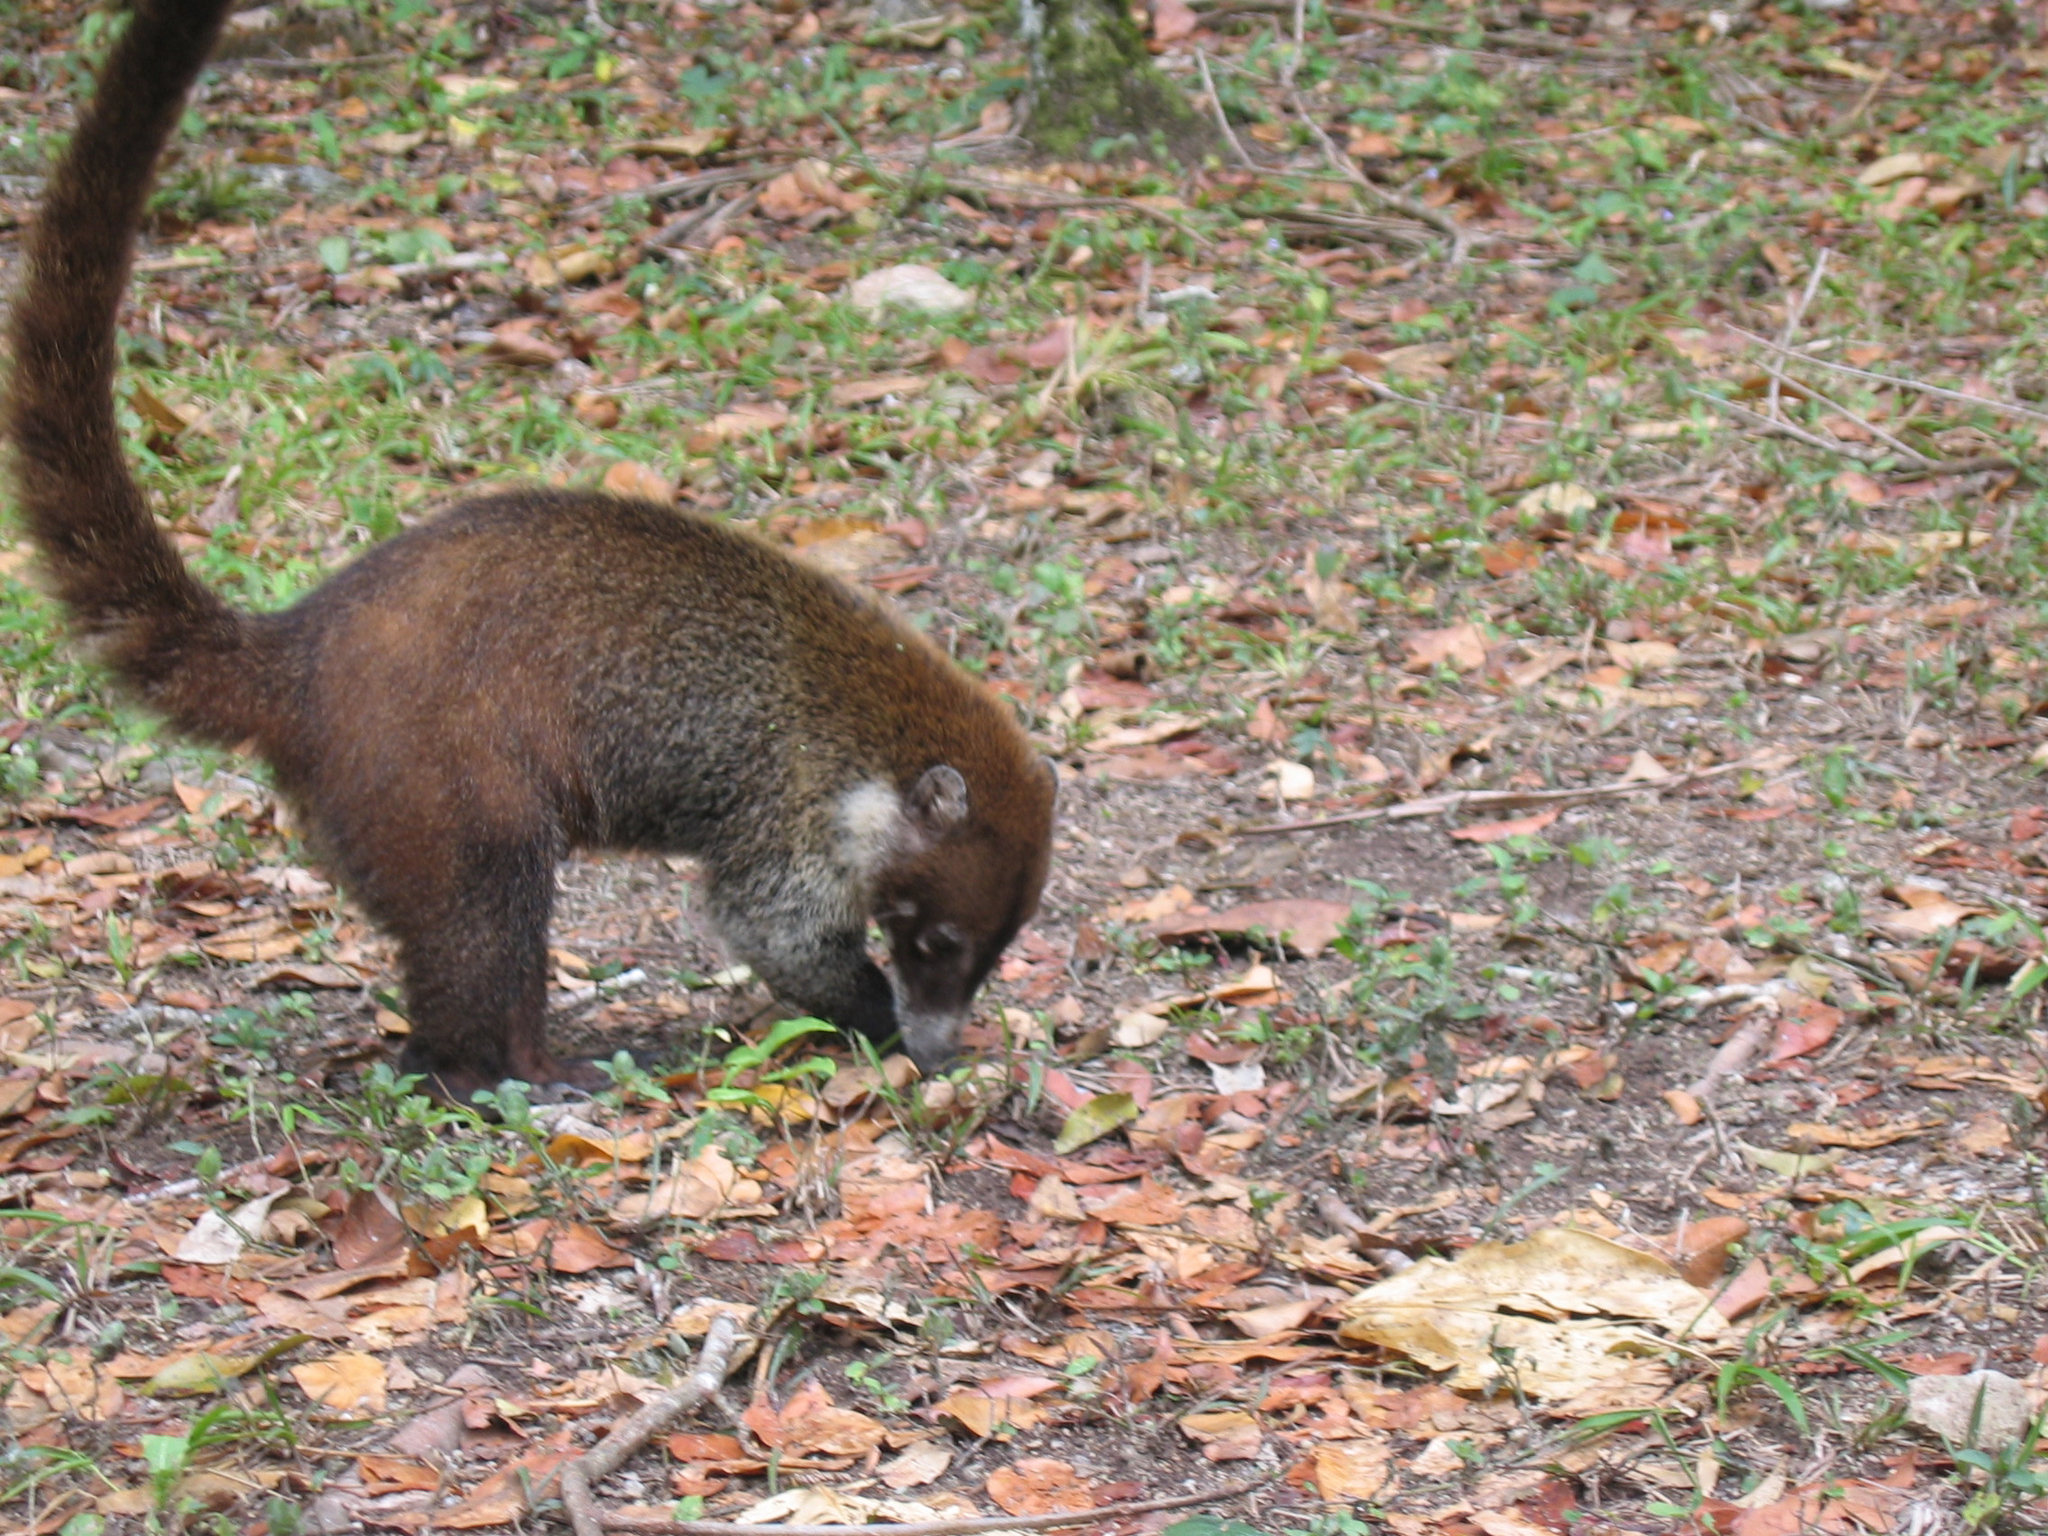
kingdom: Animalia
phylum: Chordata
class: Mammalia
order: Carnivora
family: Procyonidae
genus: Nasua
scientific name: Nasua narica
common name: White-nosed coati
